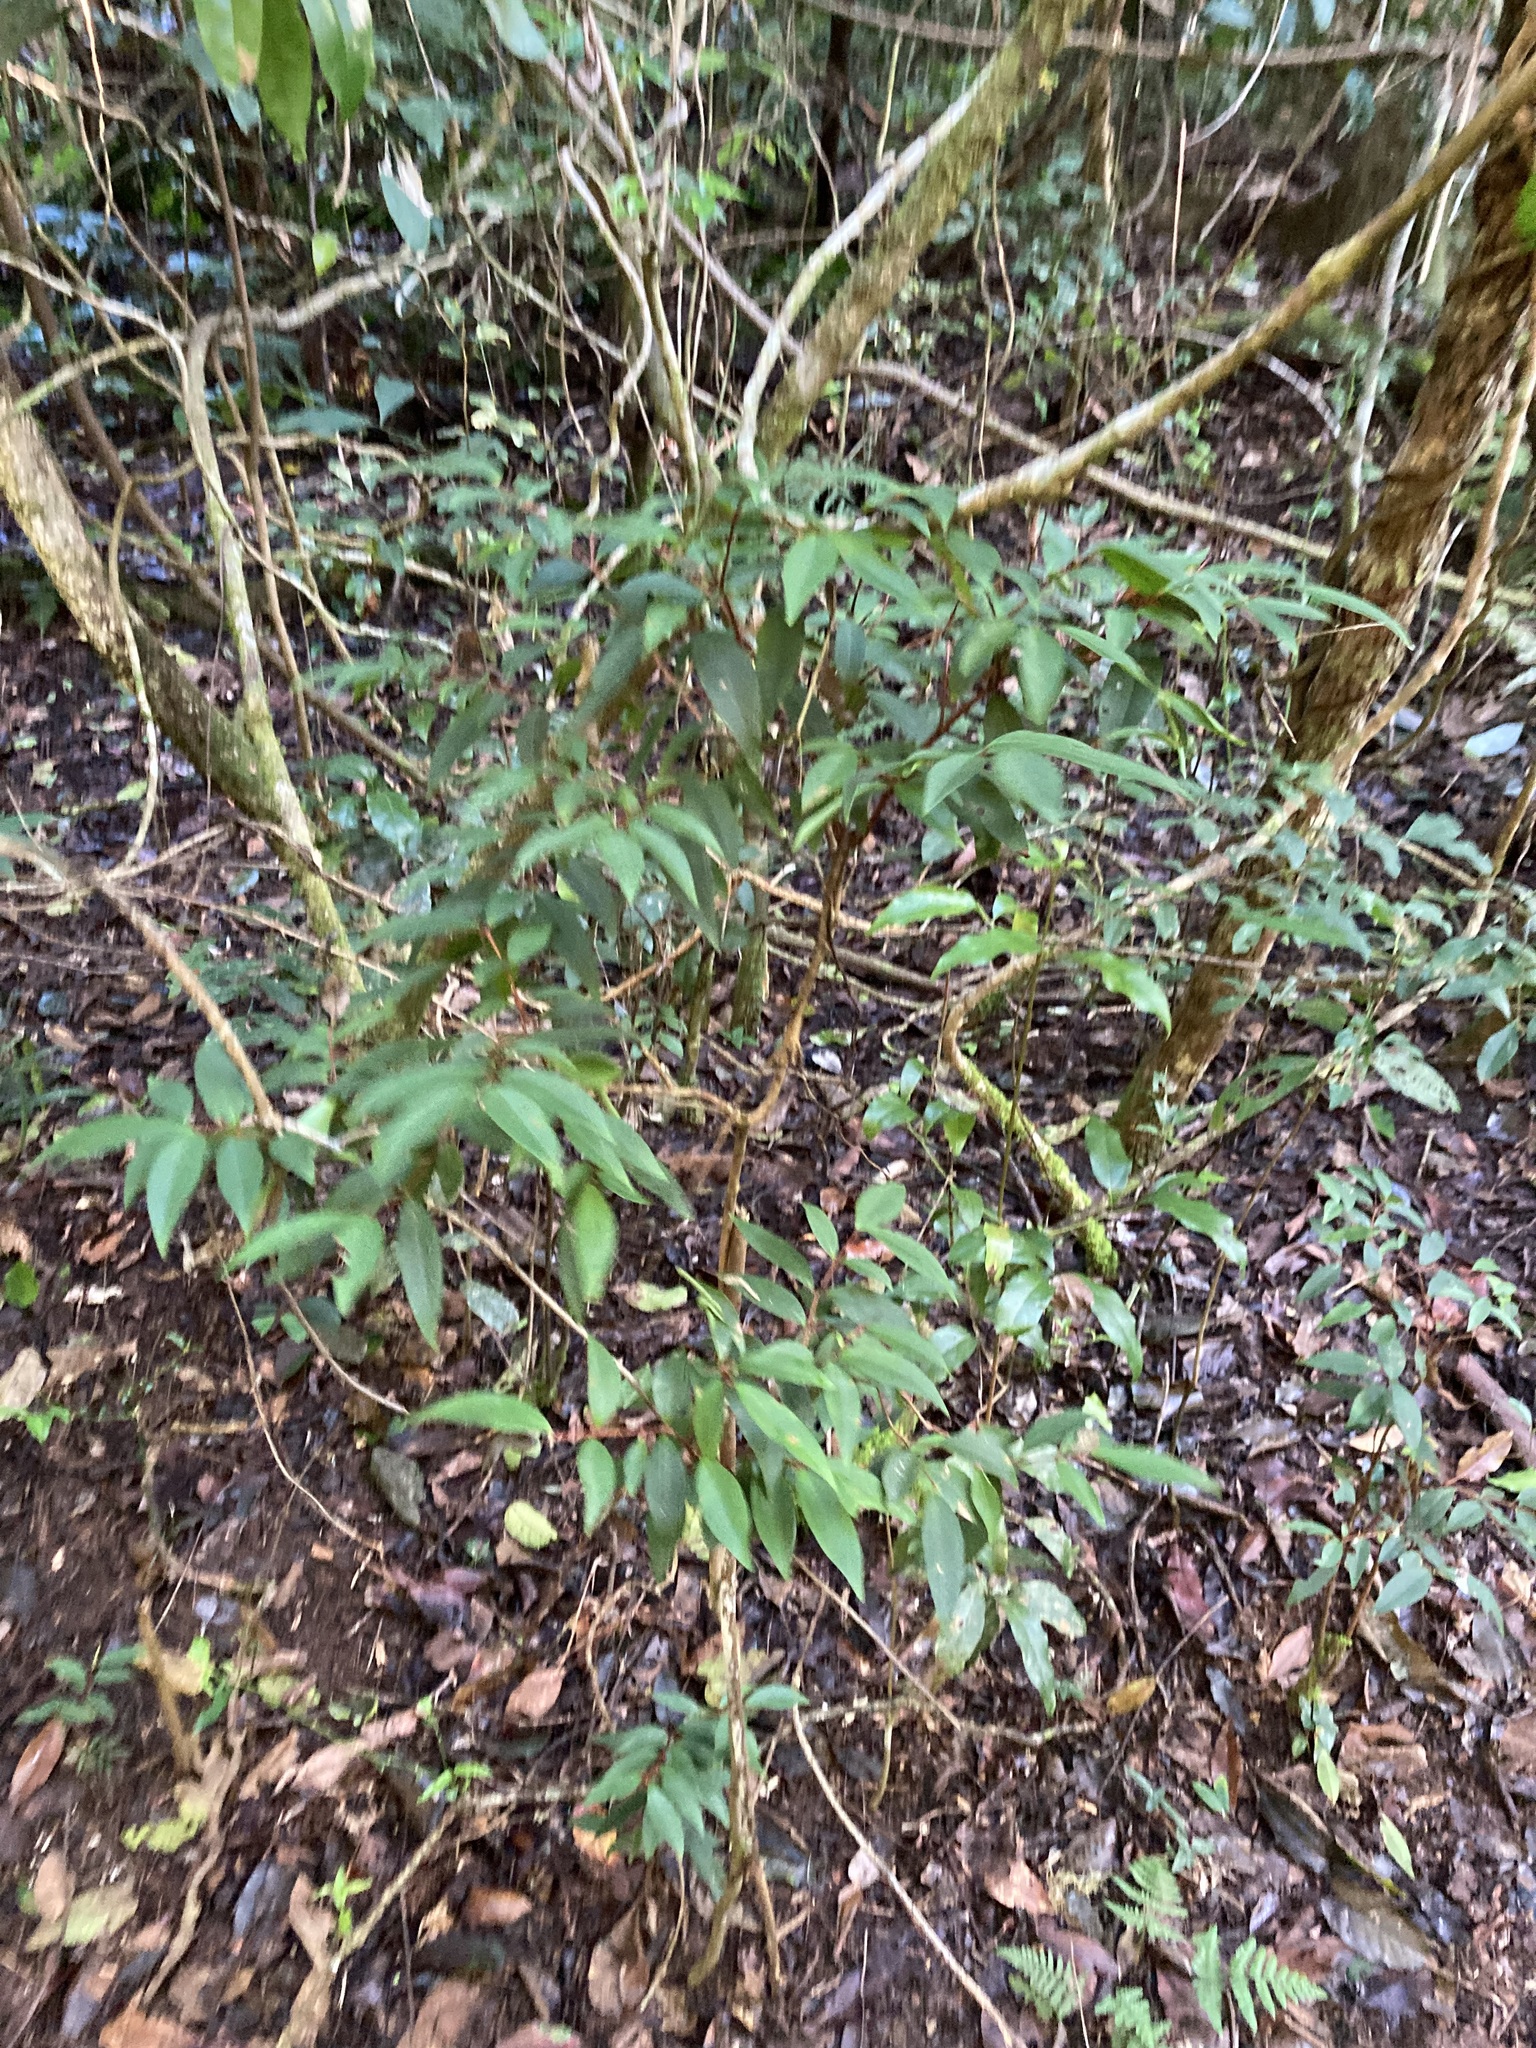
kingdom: Plantae
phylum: Tracheophyta
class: Magnoliopsida
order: Myrtales
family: Myrtaceae
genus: Pilidiostigma
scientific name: Pilidiostigma glabrum
